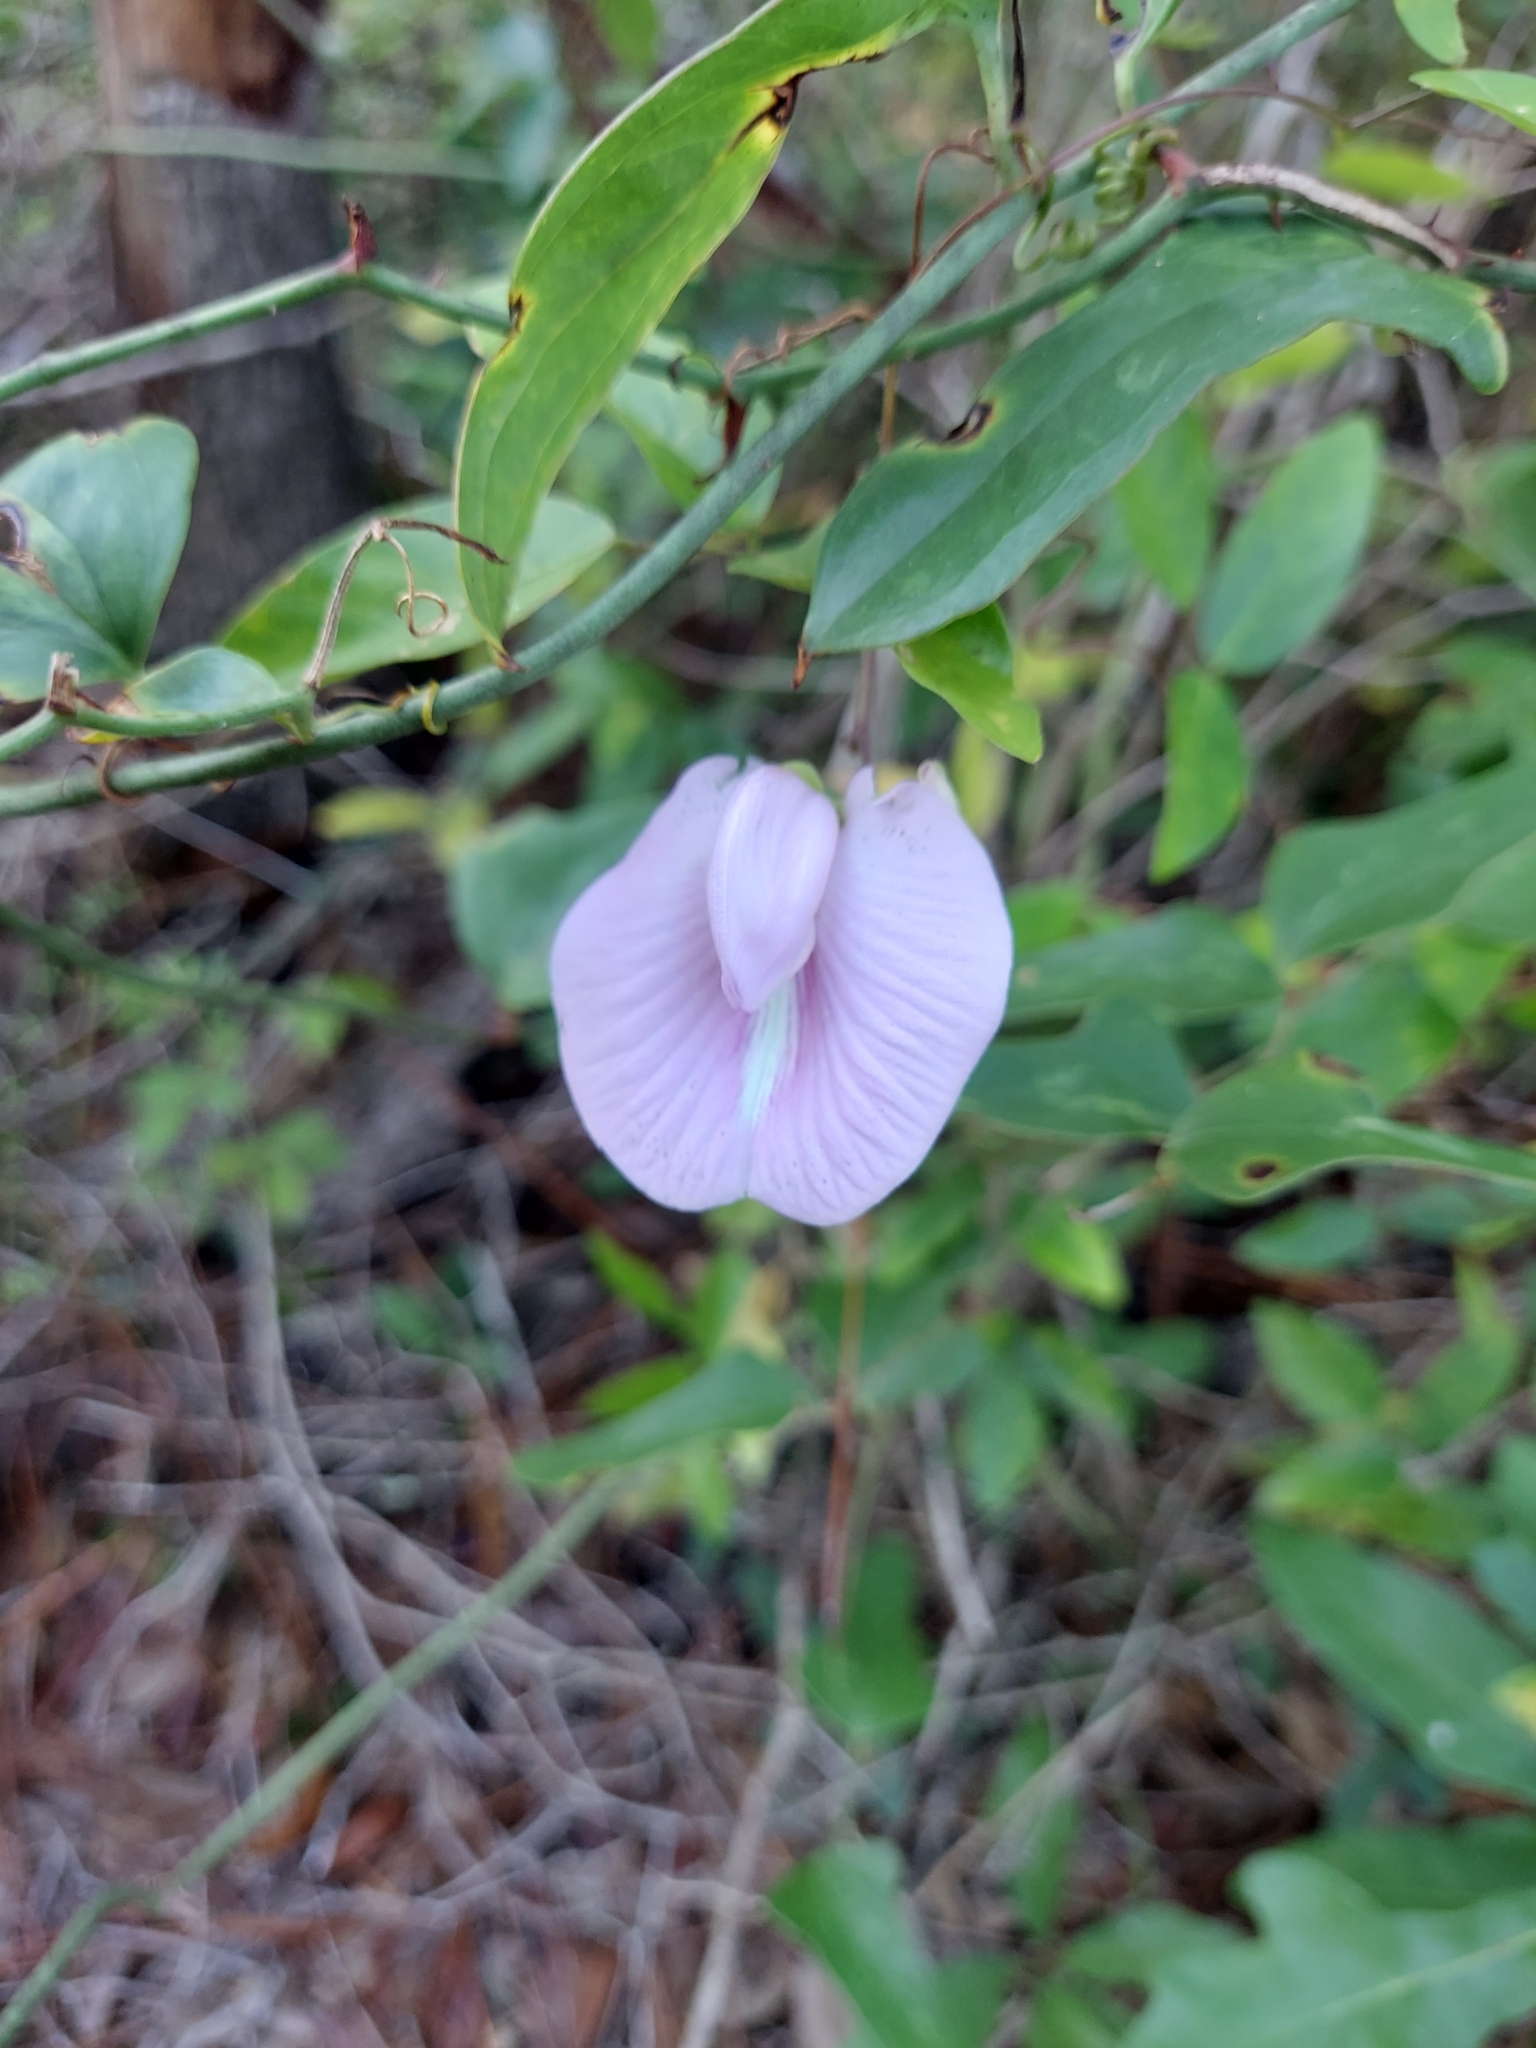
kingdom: Plantae
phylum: Tracheophyta
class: Magnoliopsida
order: Fabales
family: Fabaceae
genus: Centrosema
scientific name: Centrosema arenicola
